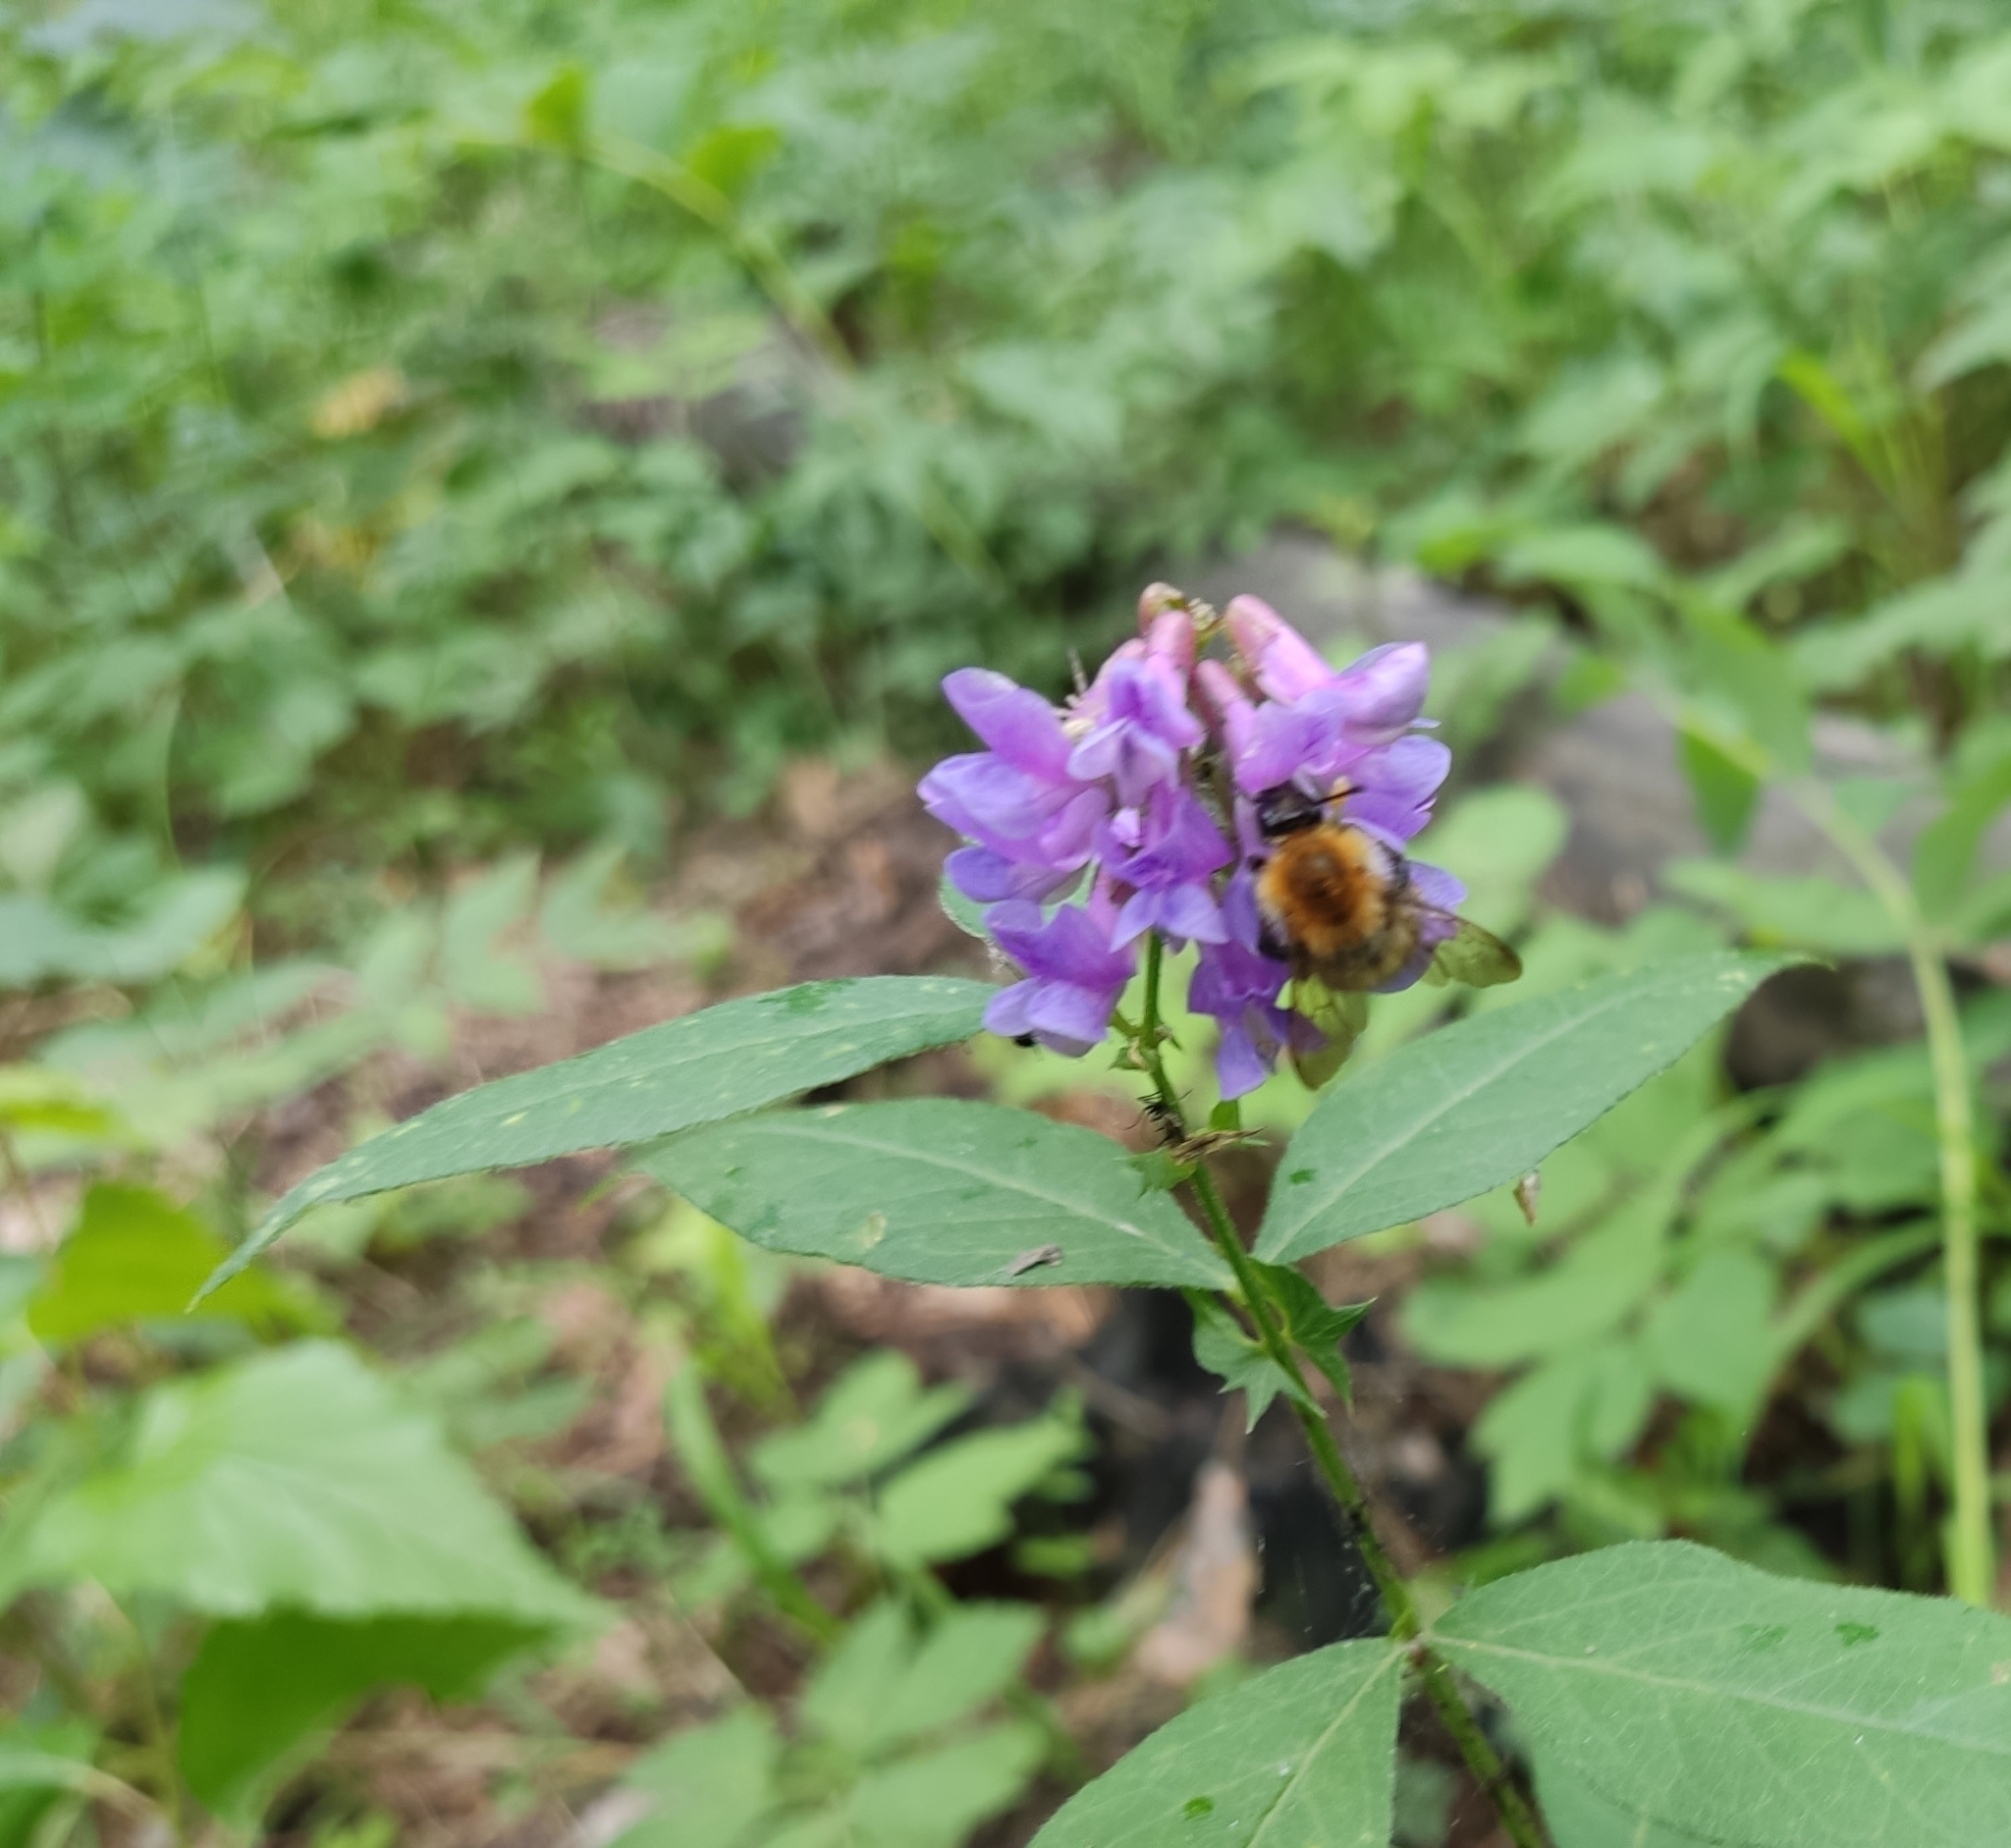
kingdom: Animalia
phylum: Arthropoda
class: Insecta
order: Hymenoptera
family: Apidae
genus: Bombus
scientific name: Bombus pascuorum
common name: Common carder bee
